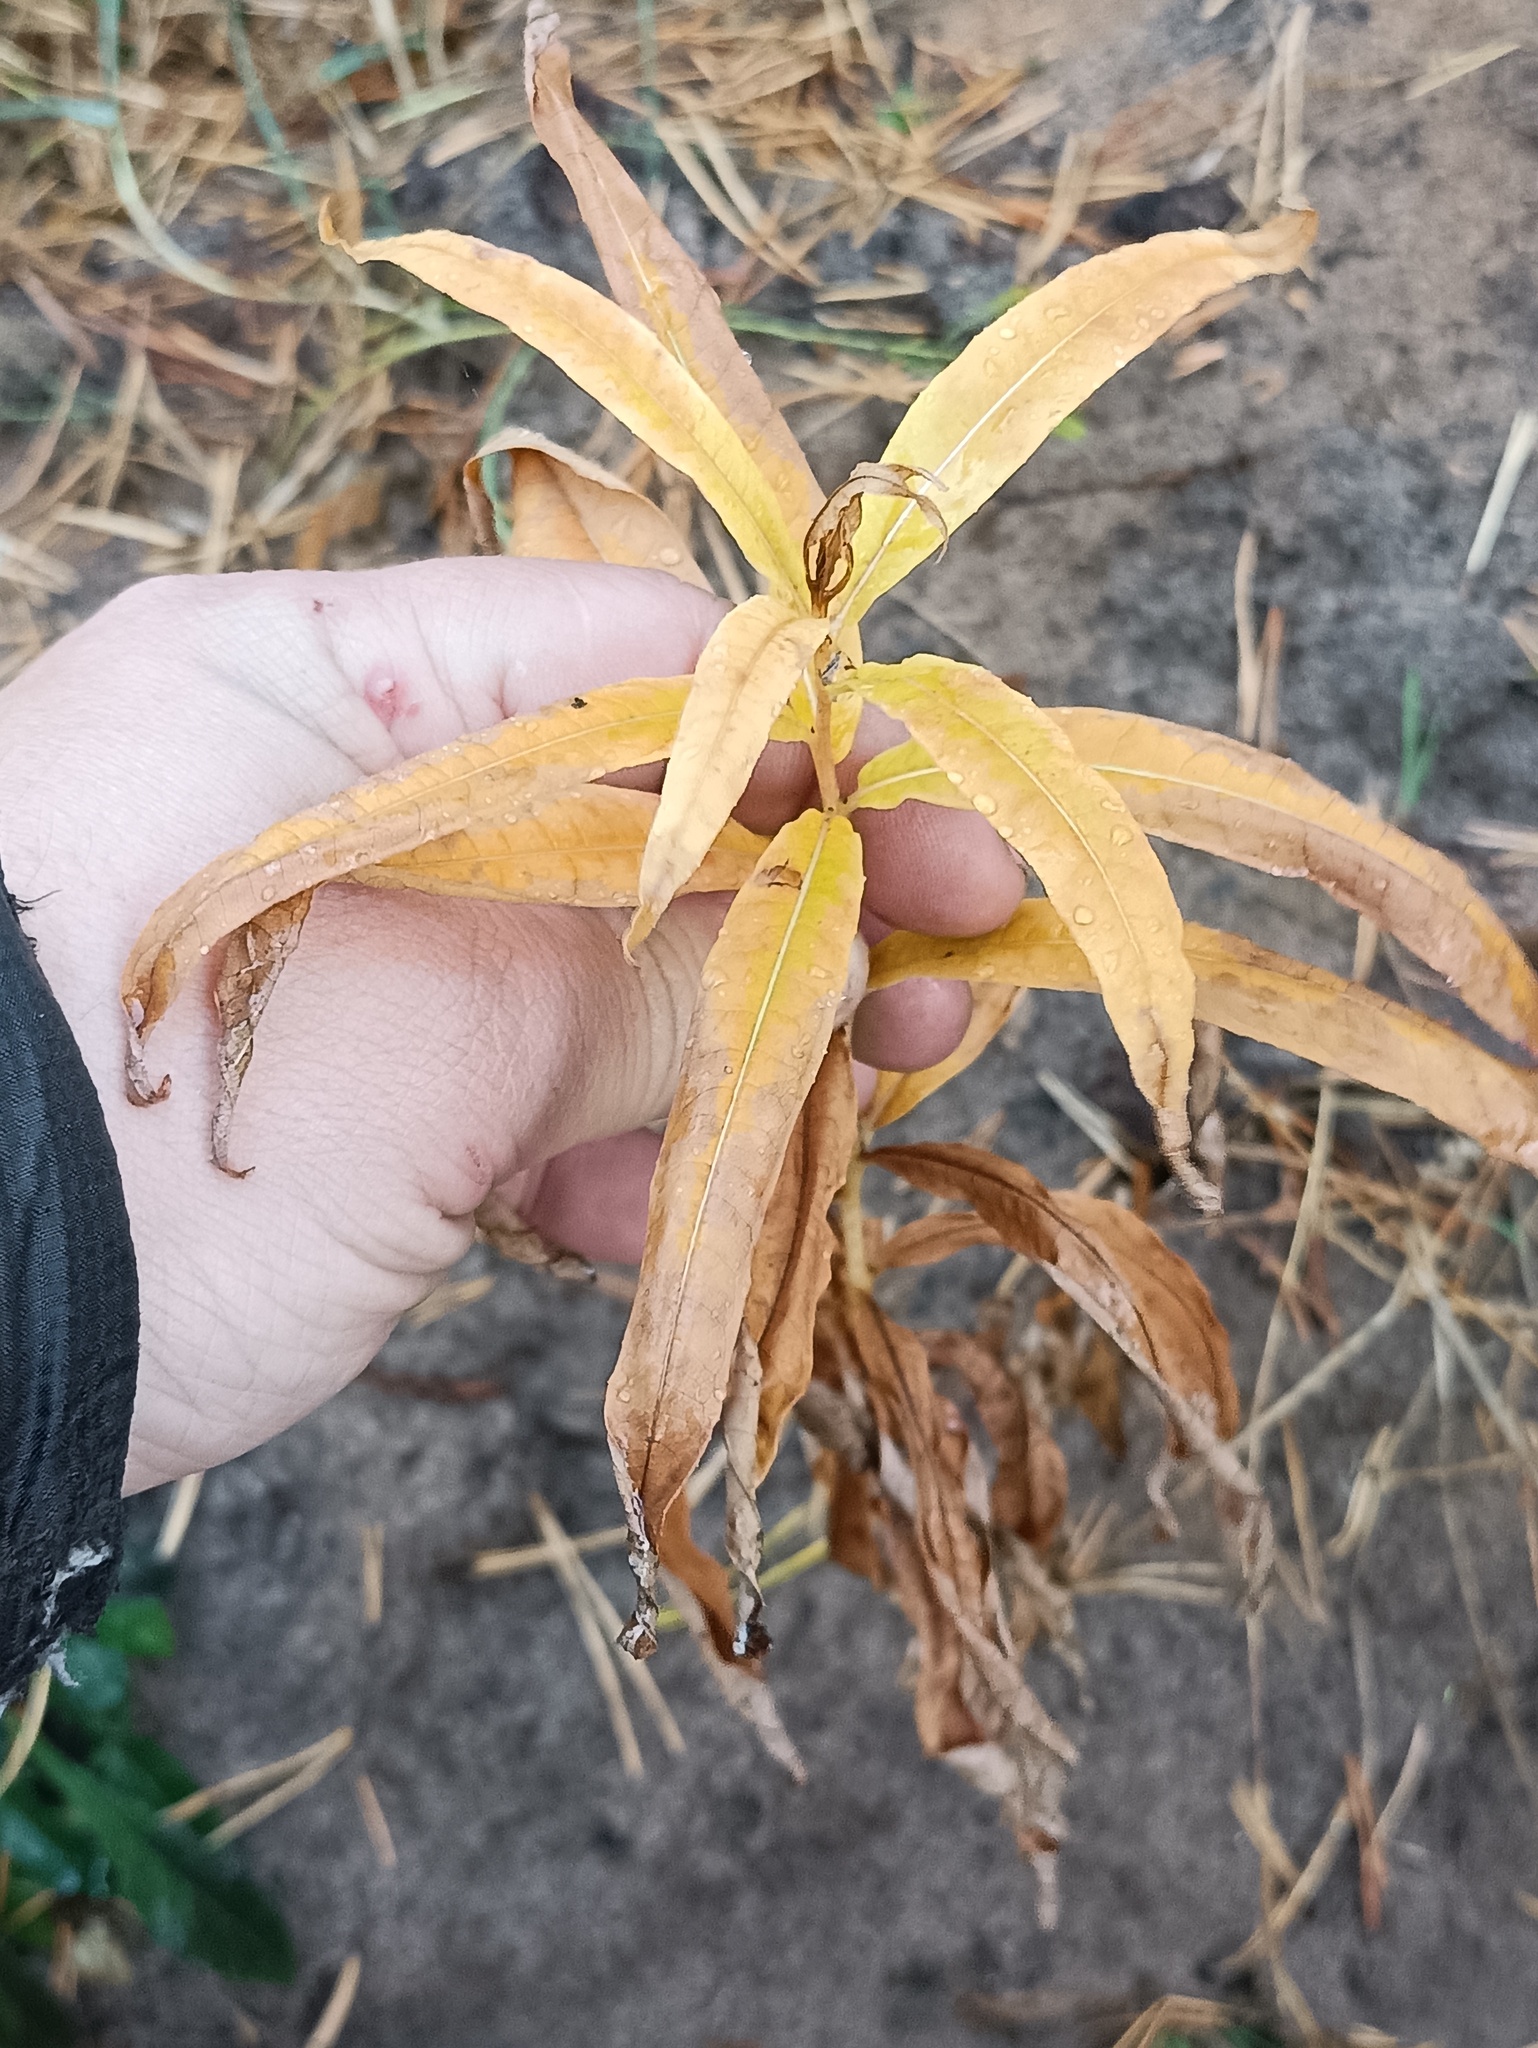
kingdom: Plantae
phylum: Tracheophyta
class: Magnoliopsida
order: Myrtales
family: Onagraceae
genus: Chamaenerion
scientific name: Chamaenerion angustifolium
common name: Fireweed
